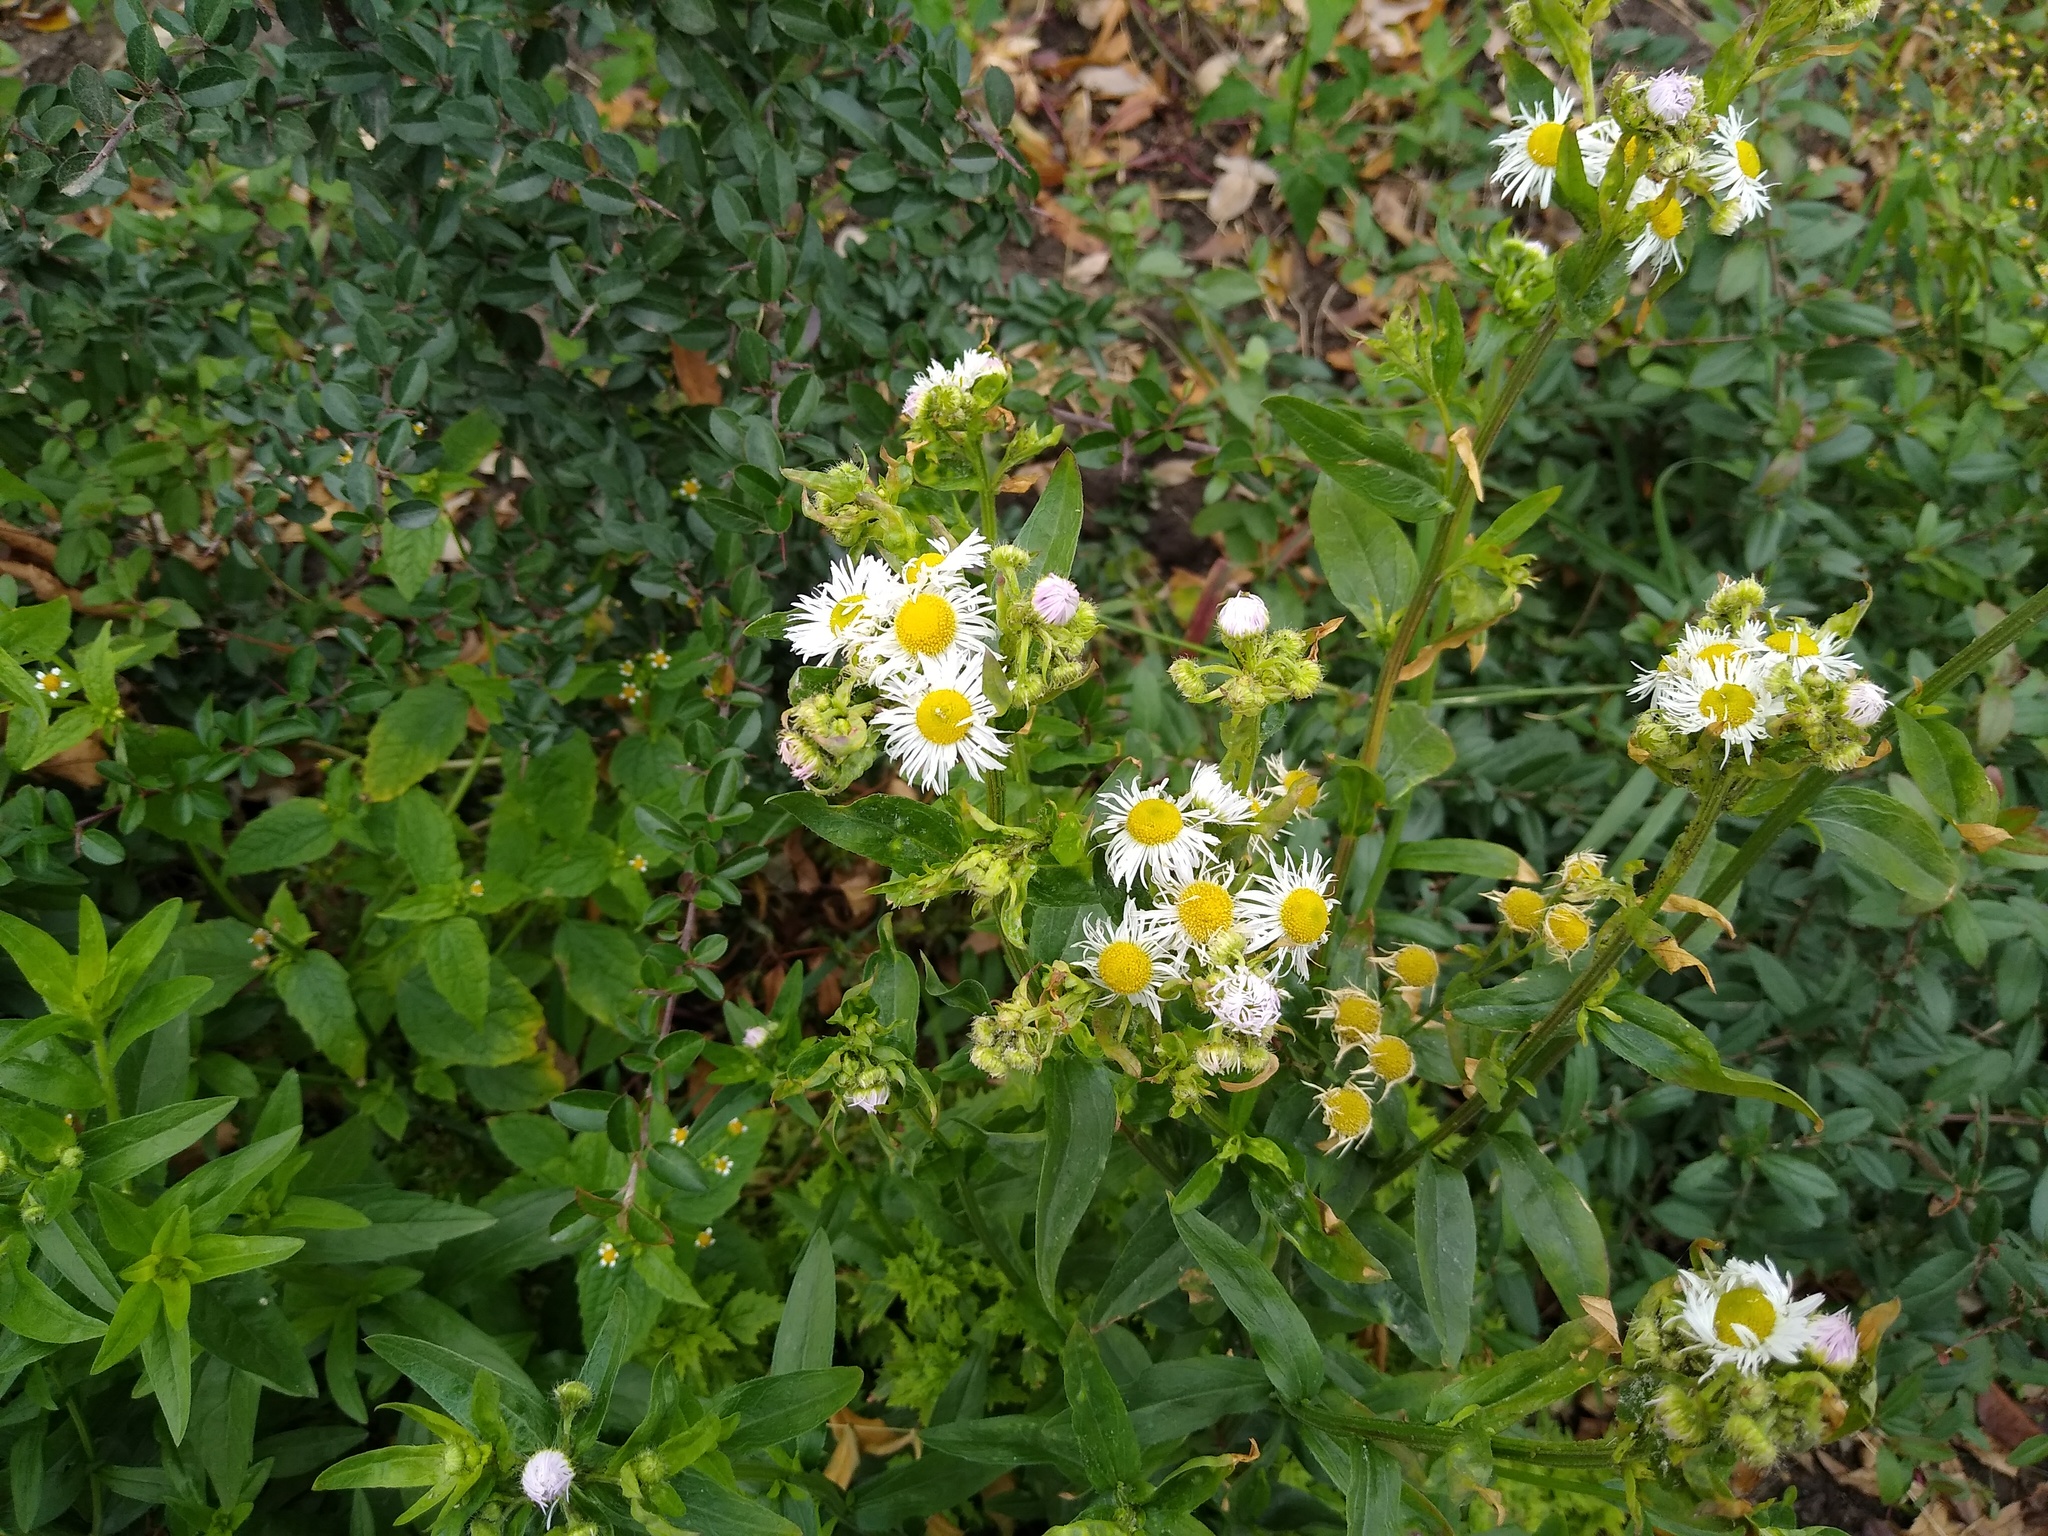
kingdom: Plantae
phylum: Tracheophyta
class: Magnoliopsida
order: Asterales
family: Asteraceae
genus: Erigeron
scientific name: Erigeron annuus
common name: Tall fleabane
